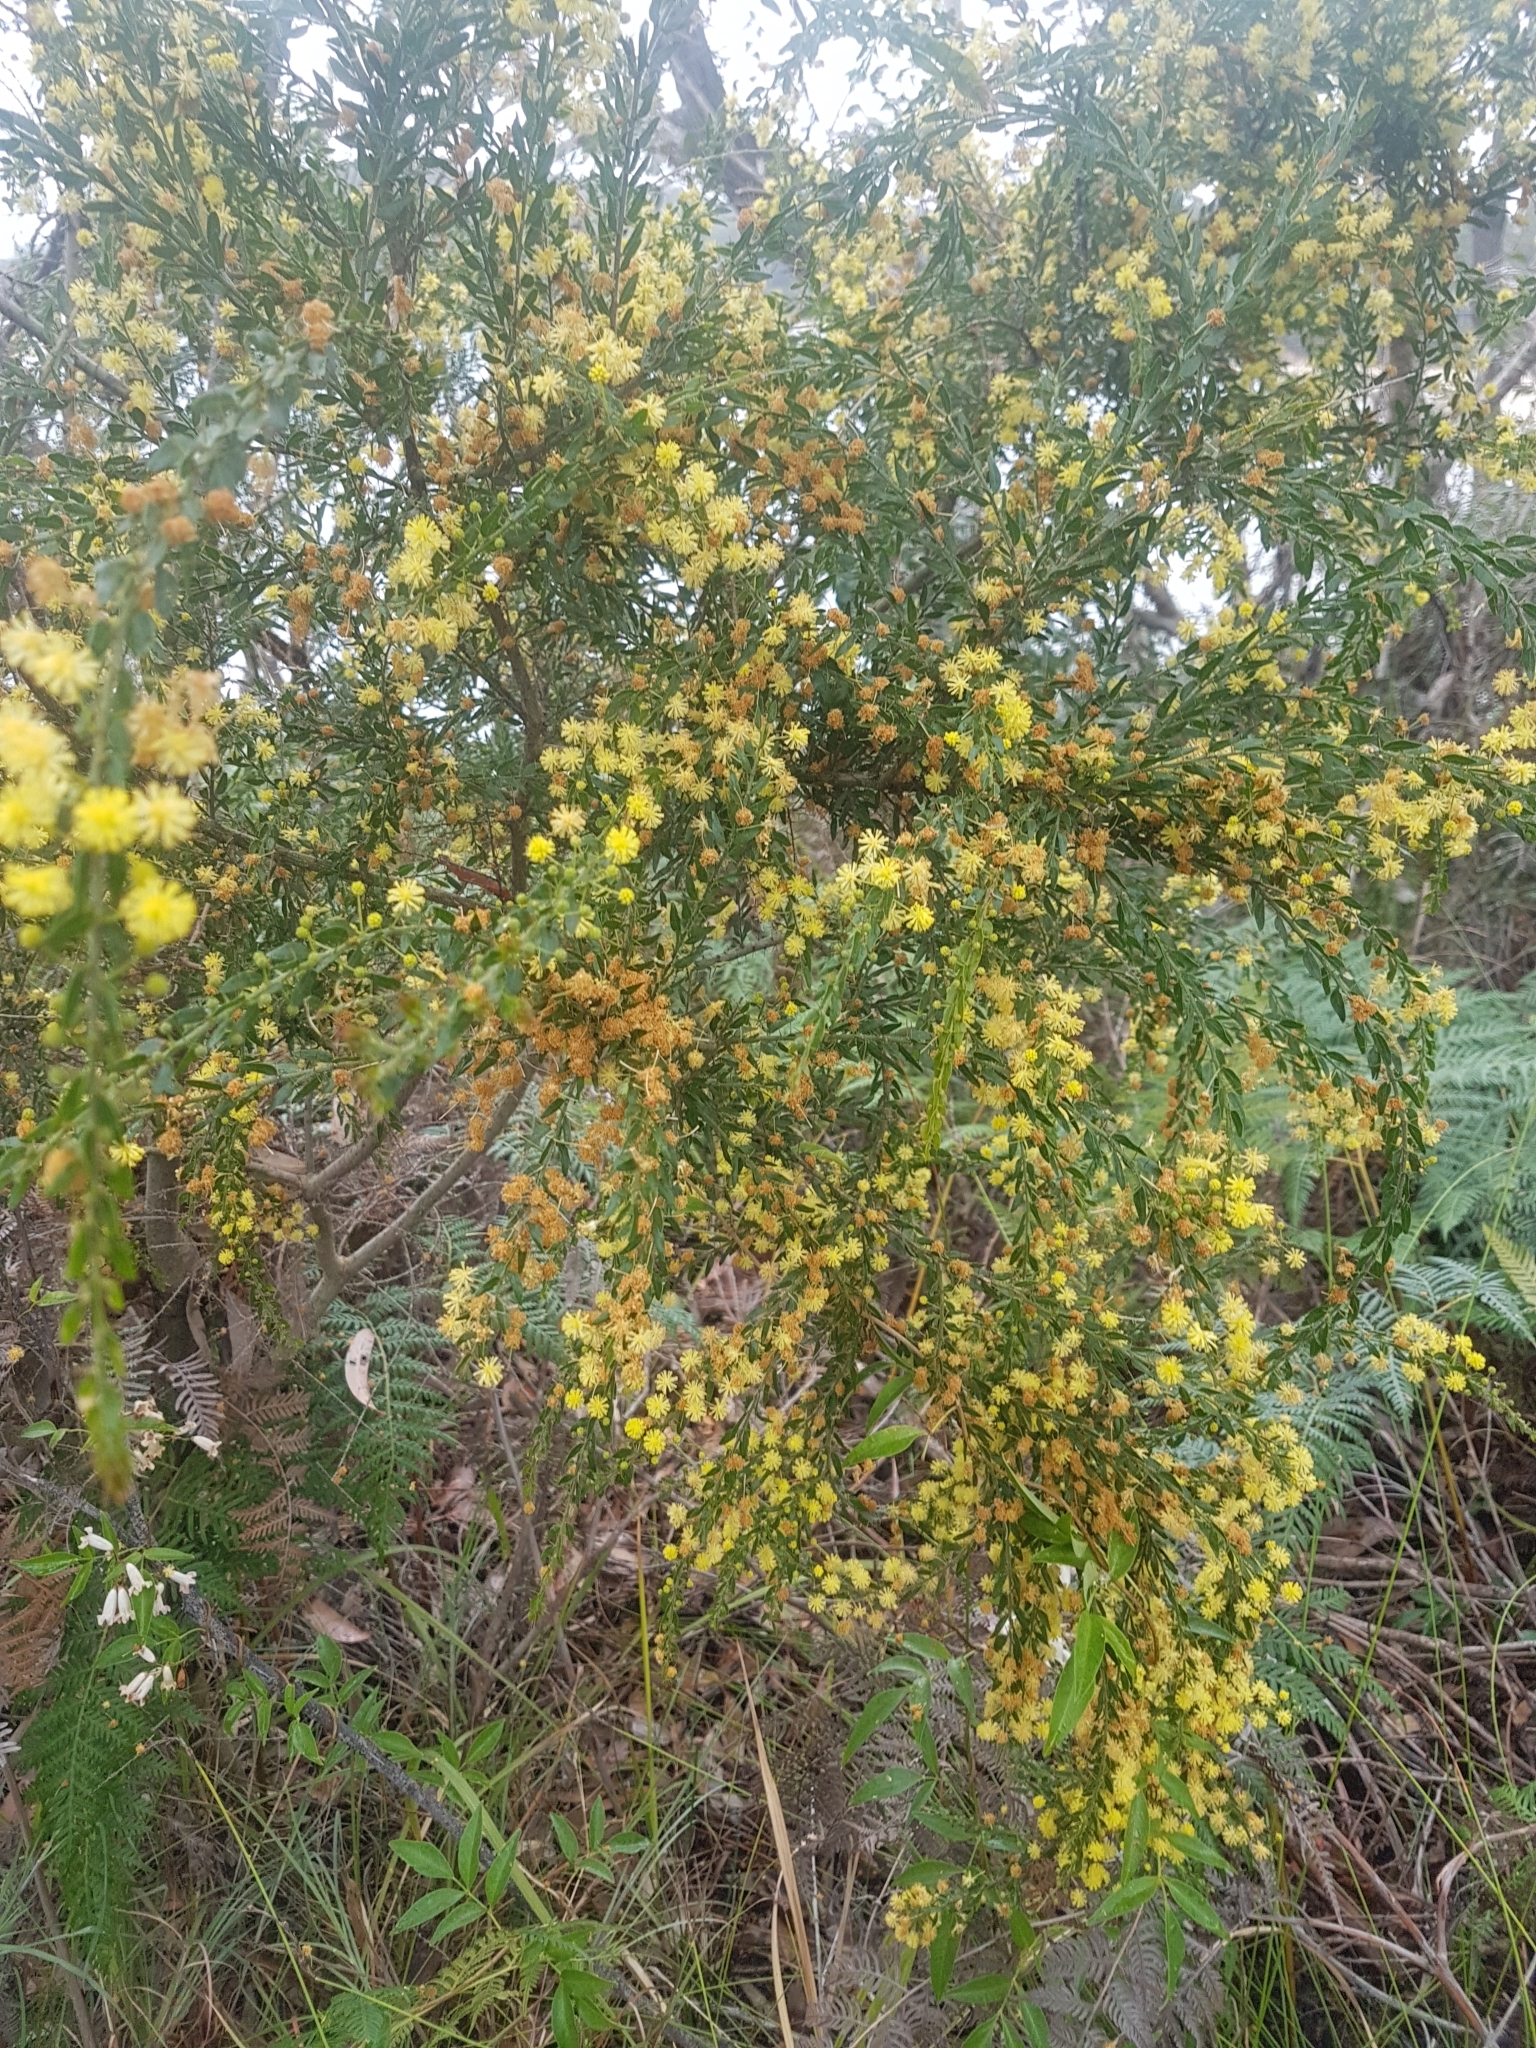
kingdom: Plantae
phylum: Tracheophyta
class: Magnoliopsida
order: Fabales
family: Fabaceae
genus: Acacia
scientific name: Acacia paradoxa
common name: Paradox acacia
